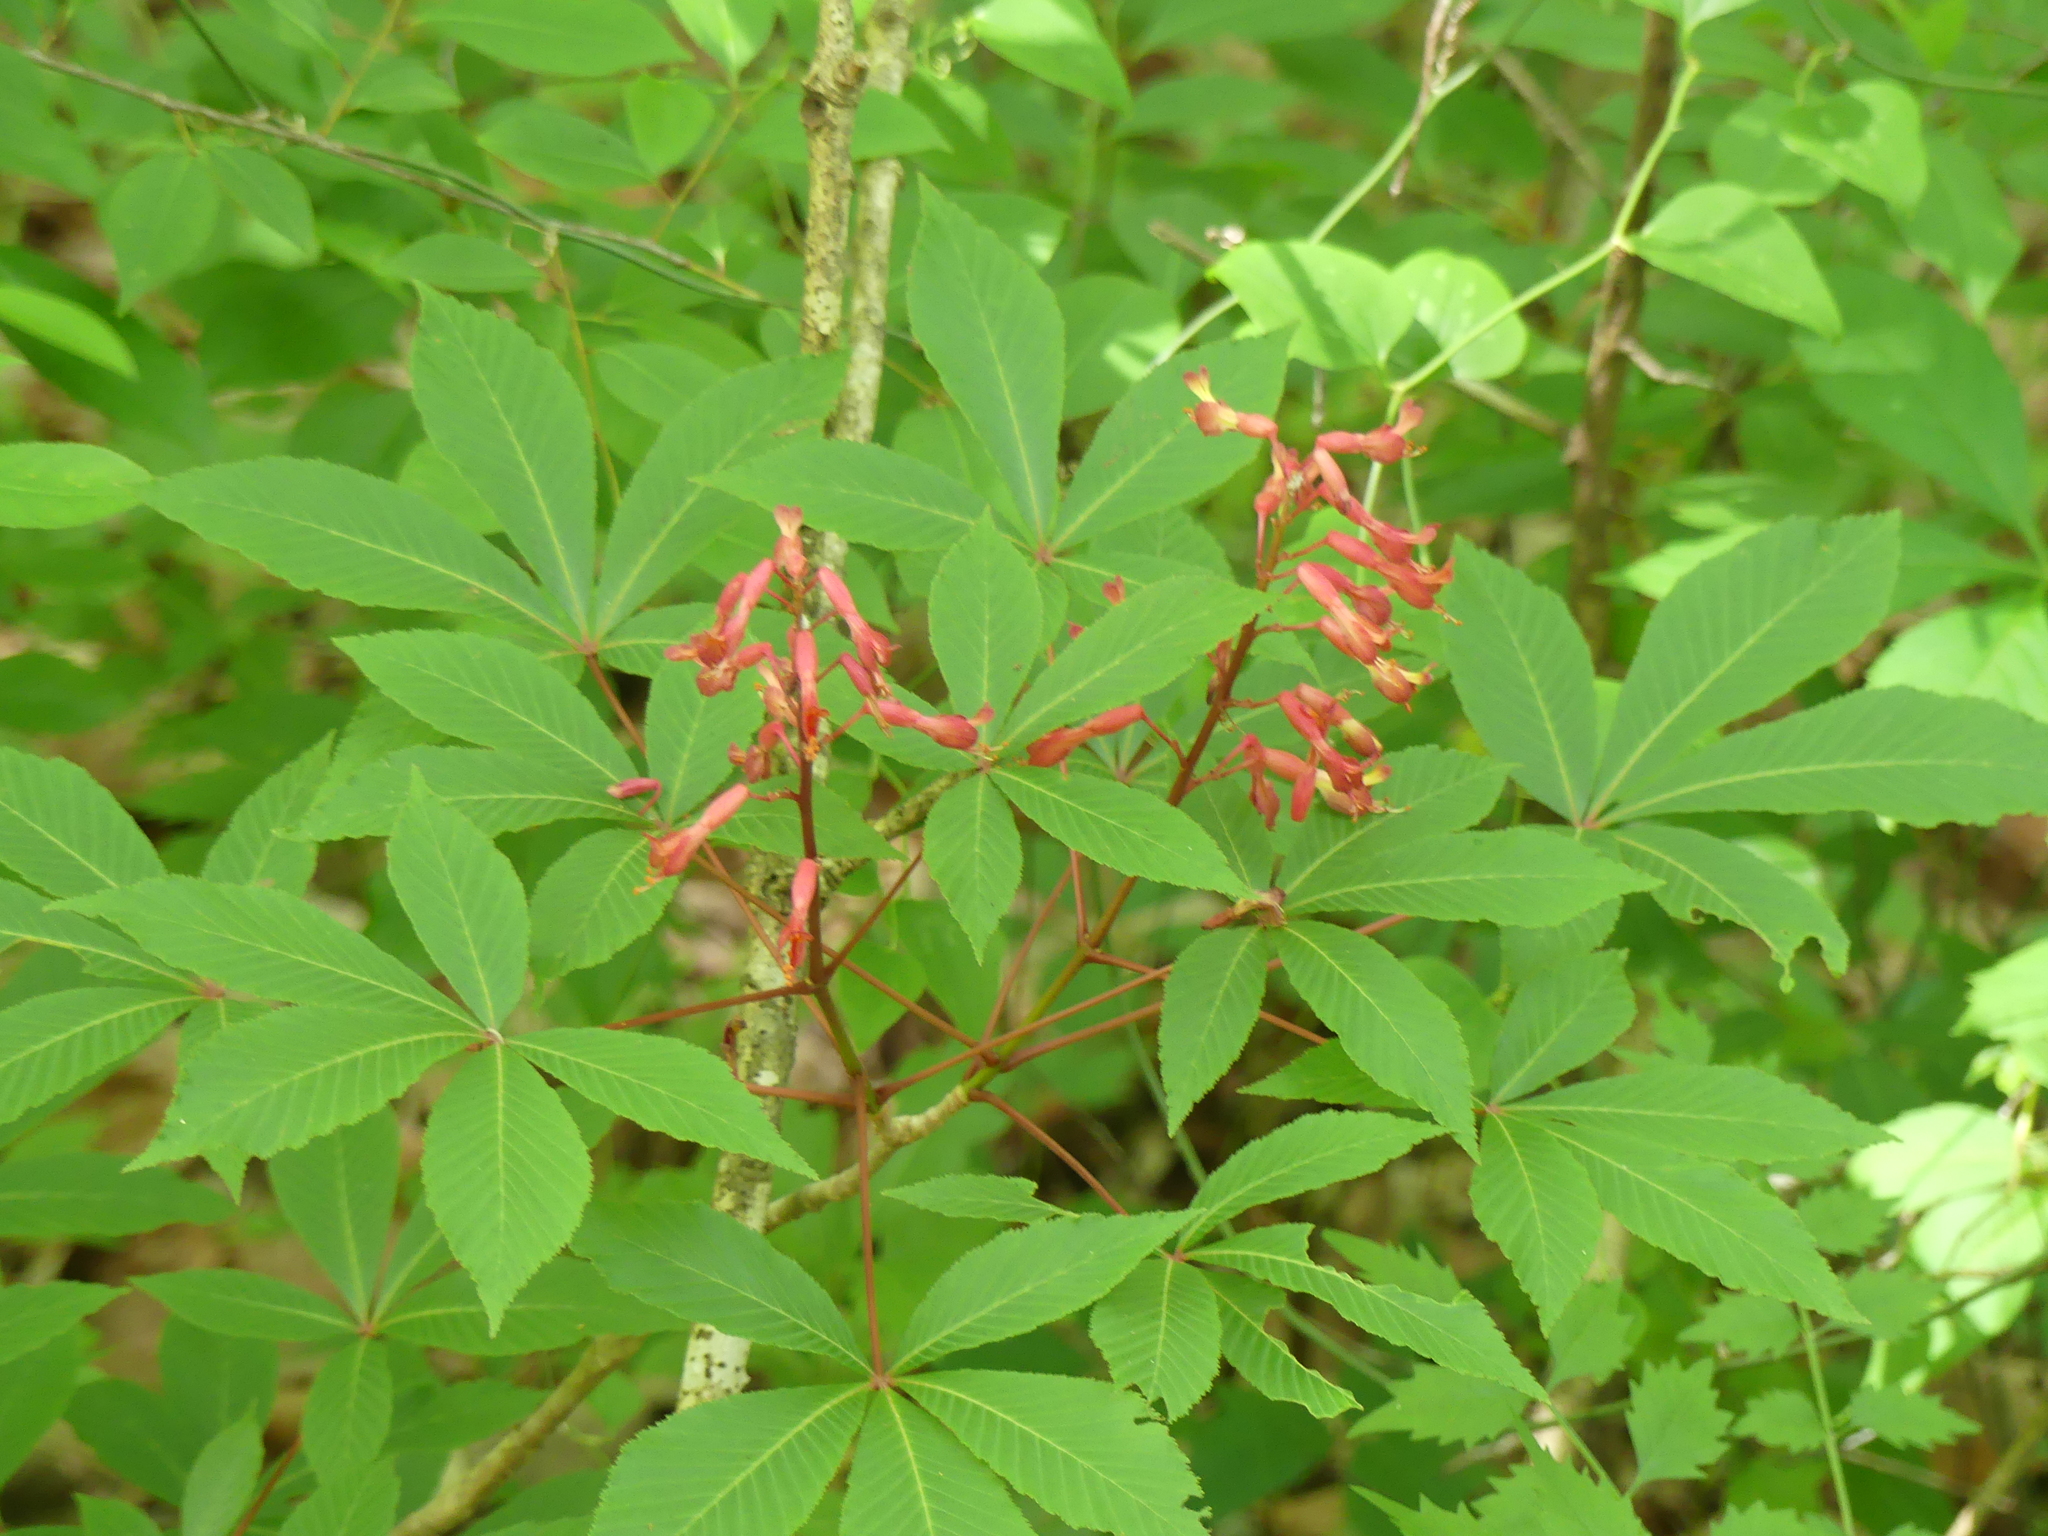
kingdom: Plantae
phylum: Tracheophyta
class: Magnoliopsida
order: Sapindales
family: Sapindaceae
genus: Aesculus
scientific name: Aesculus pavia
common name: Red buckeye
